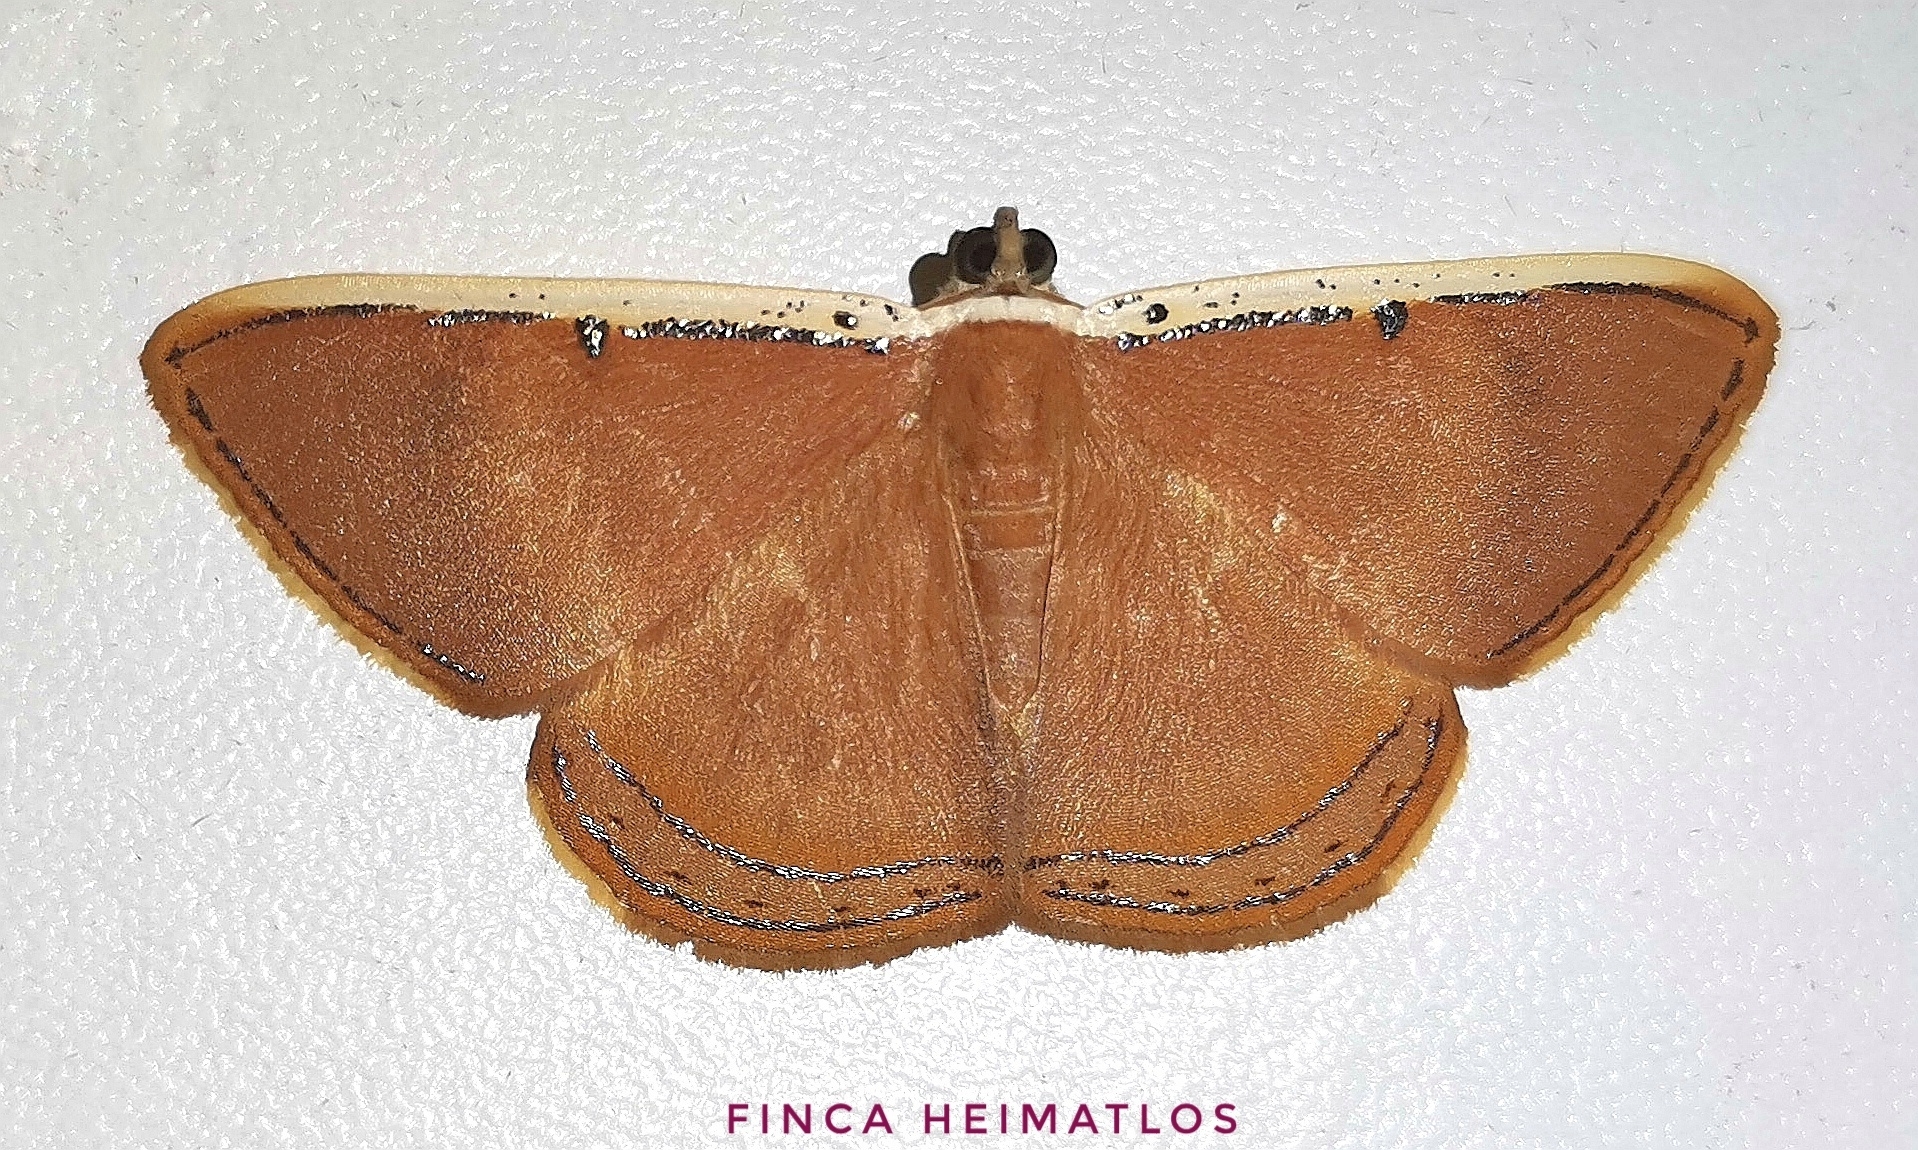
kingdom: Animalia
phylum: Arthropoda
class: Insecta
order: Lepidoptera
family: Geometridae
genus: Palyas
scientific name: Palyas micacearia
